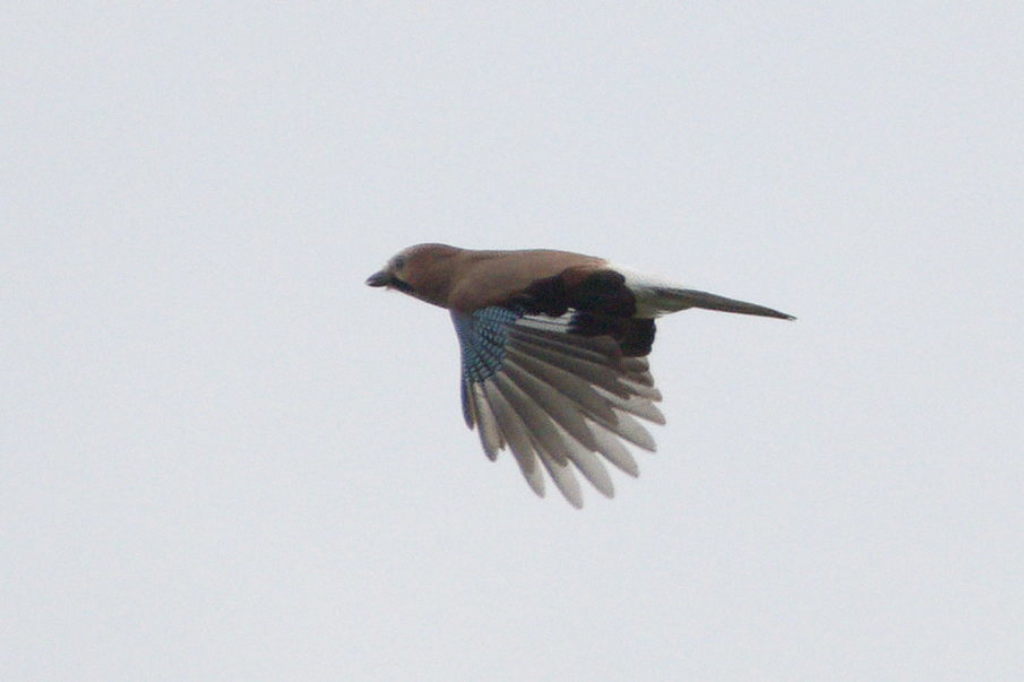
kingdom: Animalia
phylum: Chordata
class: Aves
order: Passeriformes
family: Corvidae
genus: Garrulus
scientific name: Garrulus glandarius
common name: Eurasian jay
